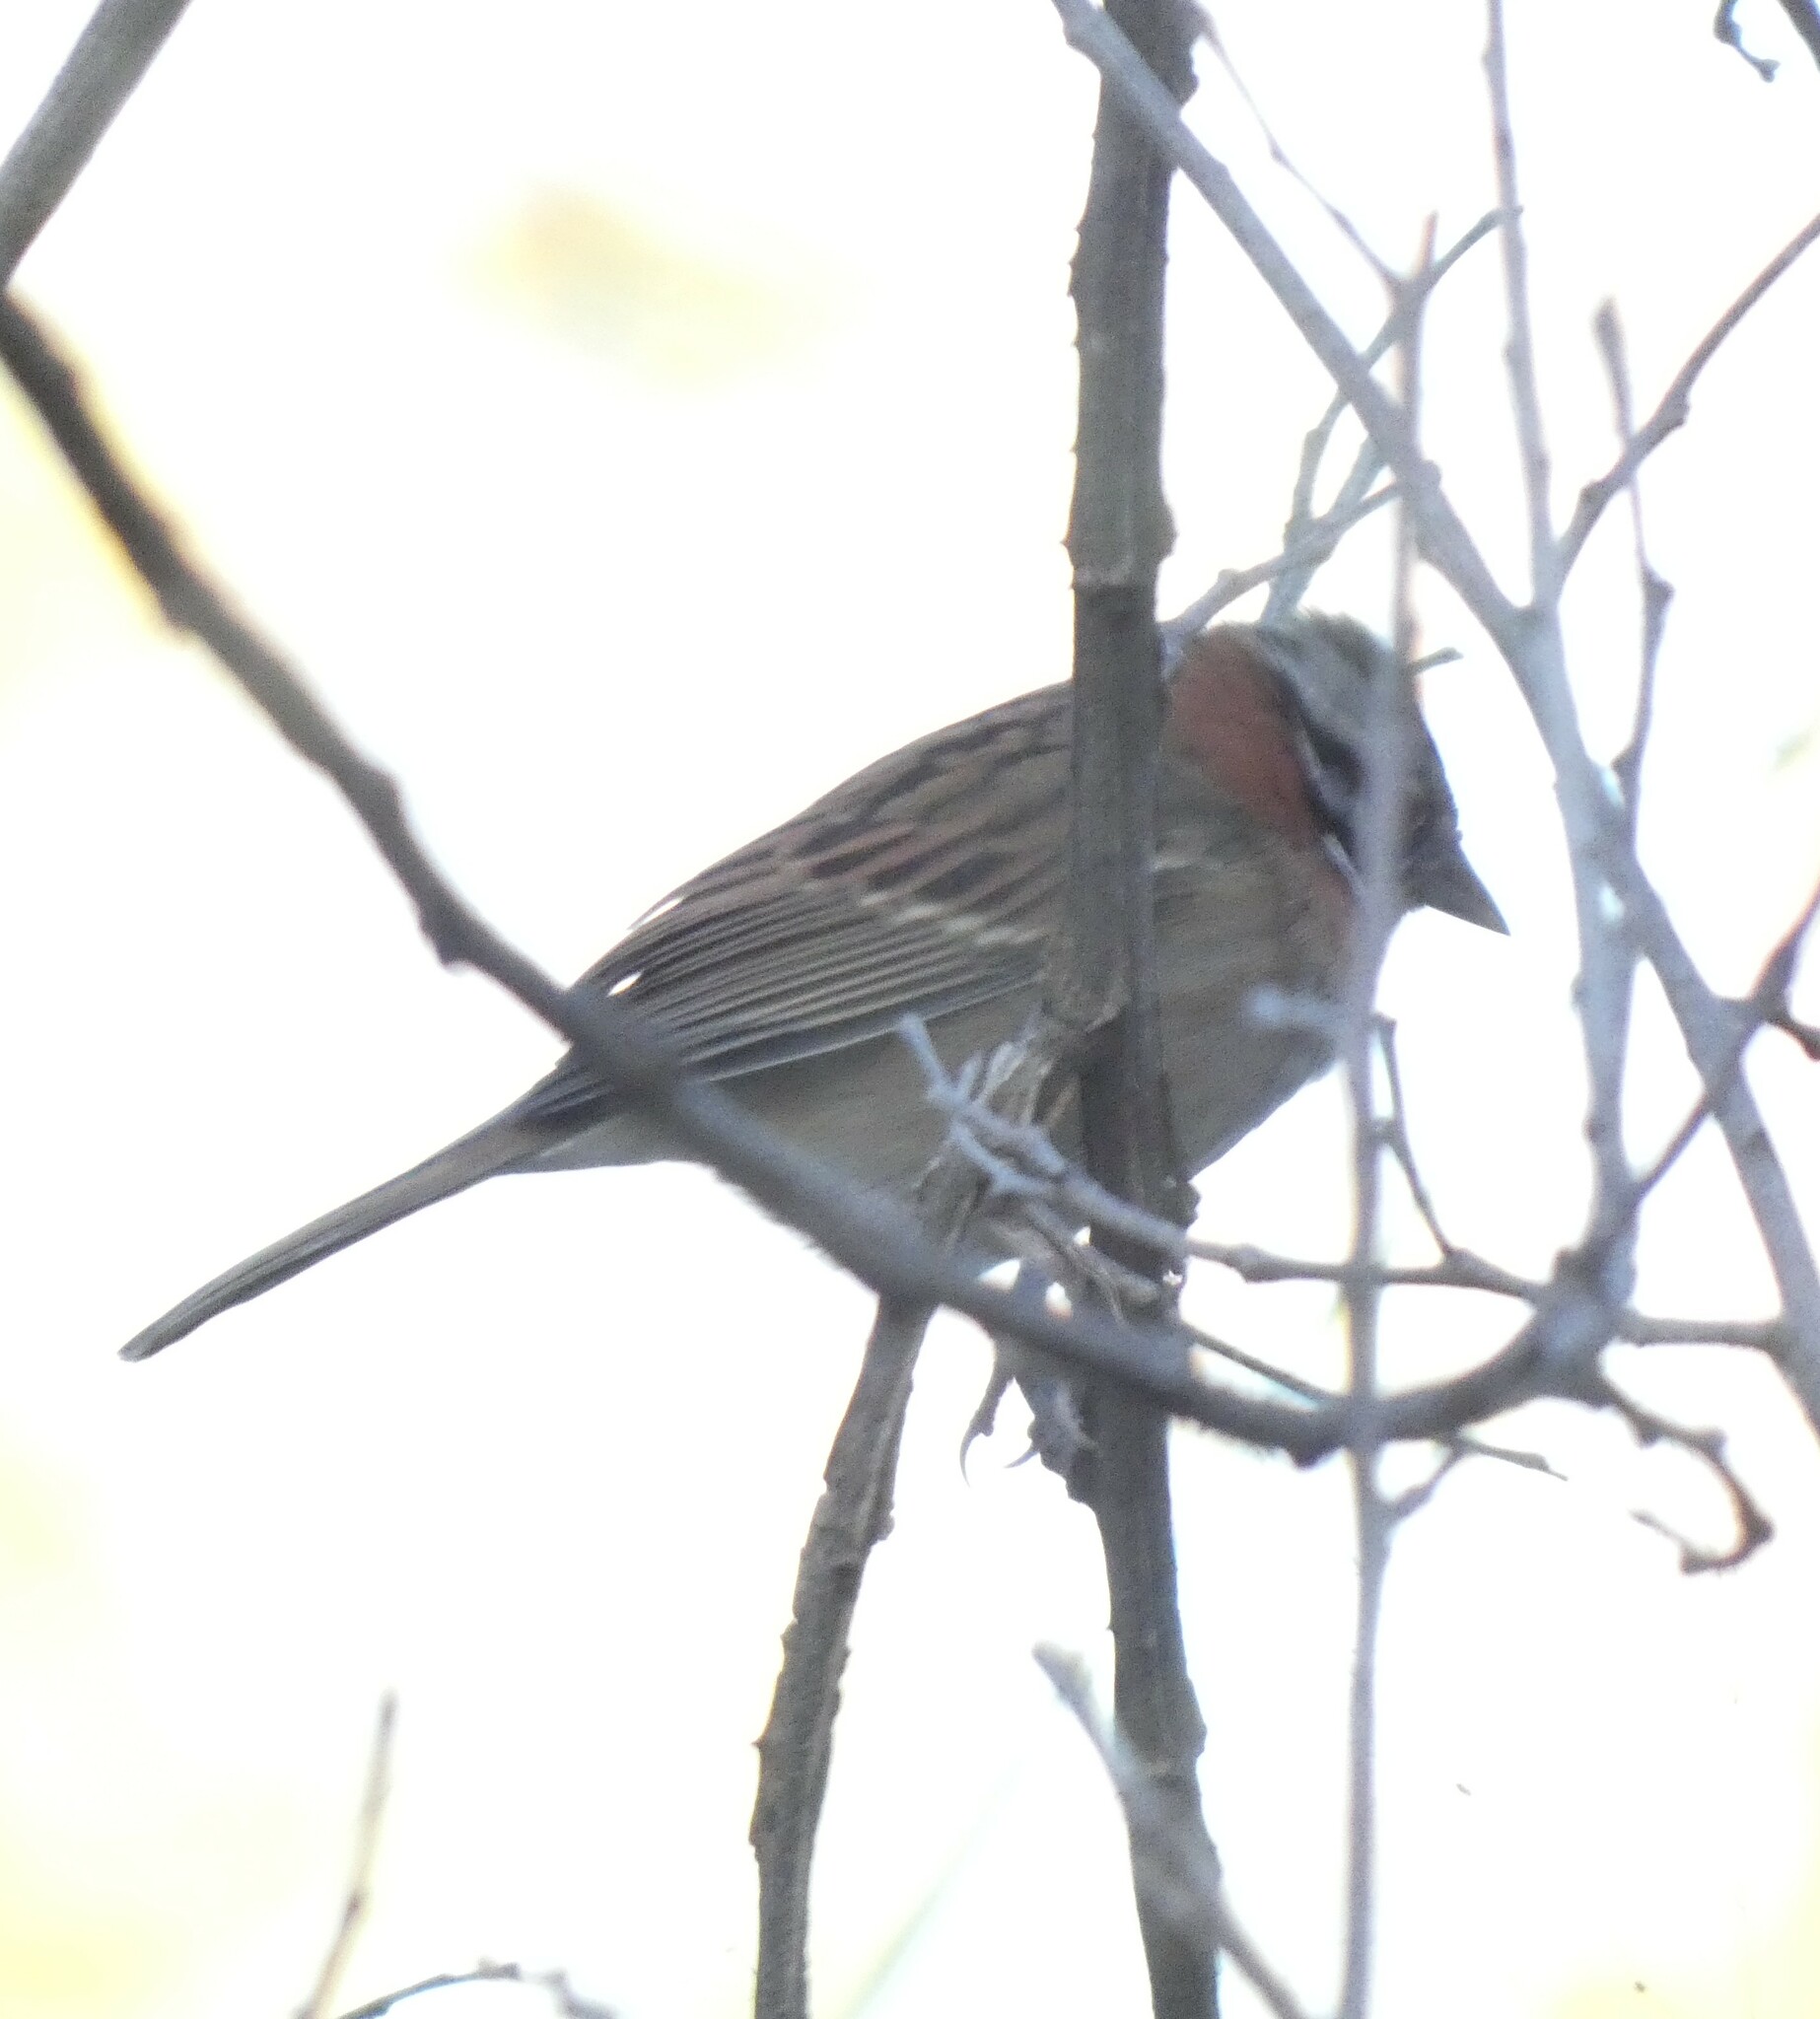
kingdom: Animalia
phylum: Chordata
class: Aves
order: Passeriformes
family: Passerellidae
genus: Zonotrichia
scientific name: Zonotrichia capensis
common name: Rufous-collared sparrow
